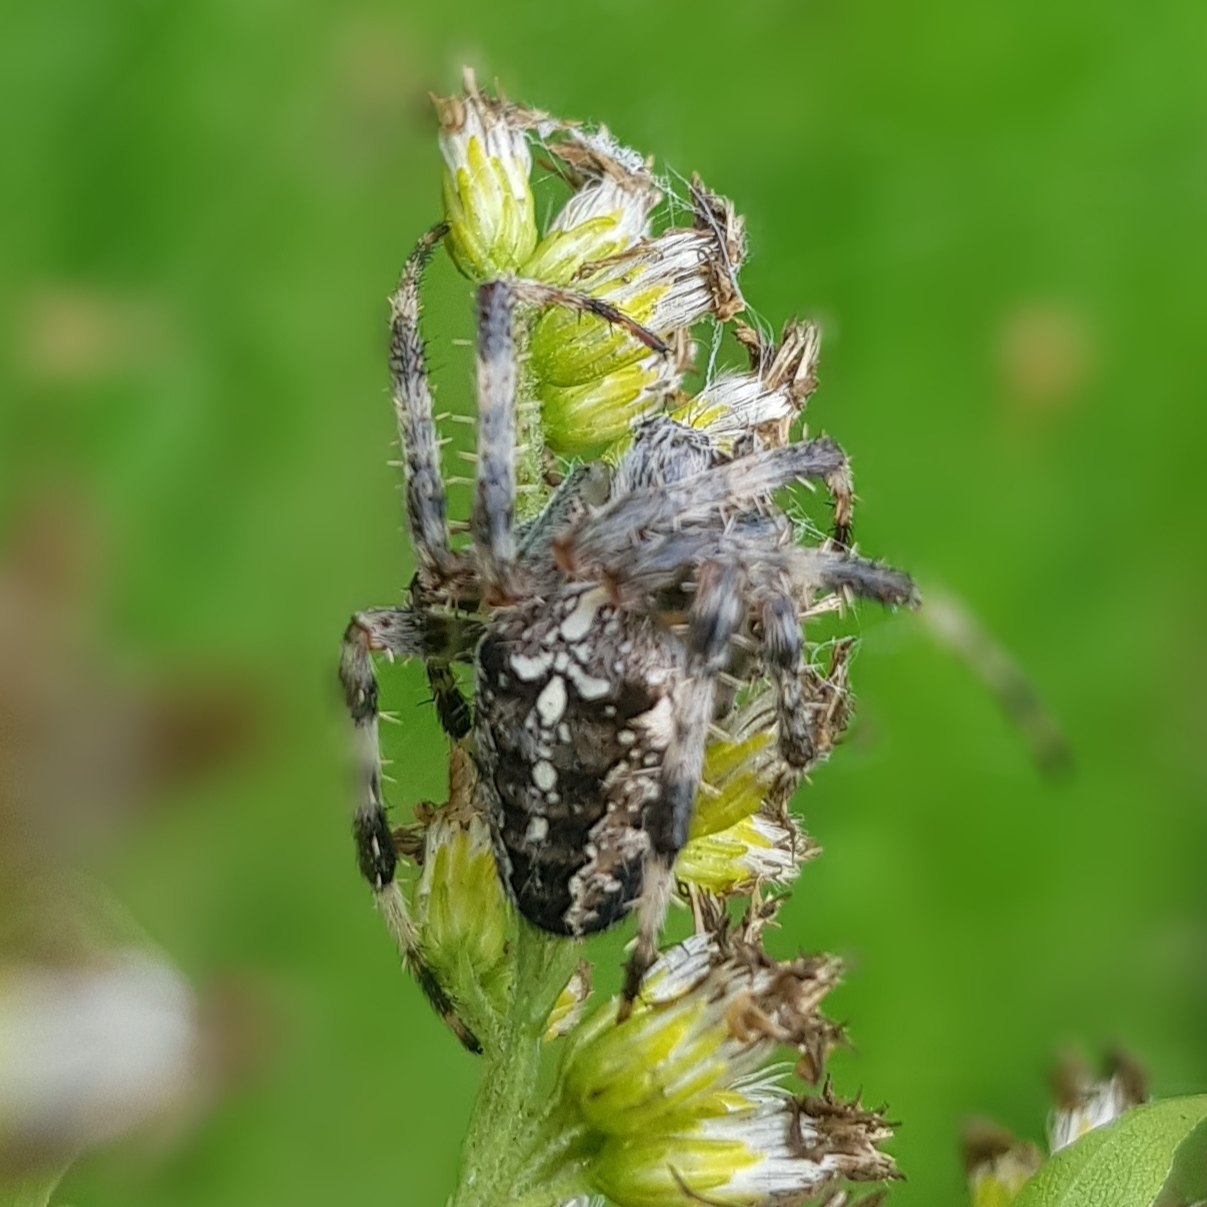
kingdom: Animalia
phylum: Arthropoda
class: Arachnida
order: Araneae
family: Araneidae
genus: Araneus
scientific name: Araneus diadematus
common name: Cross orbweaver
